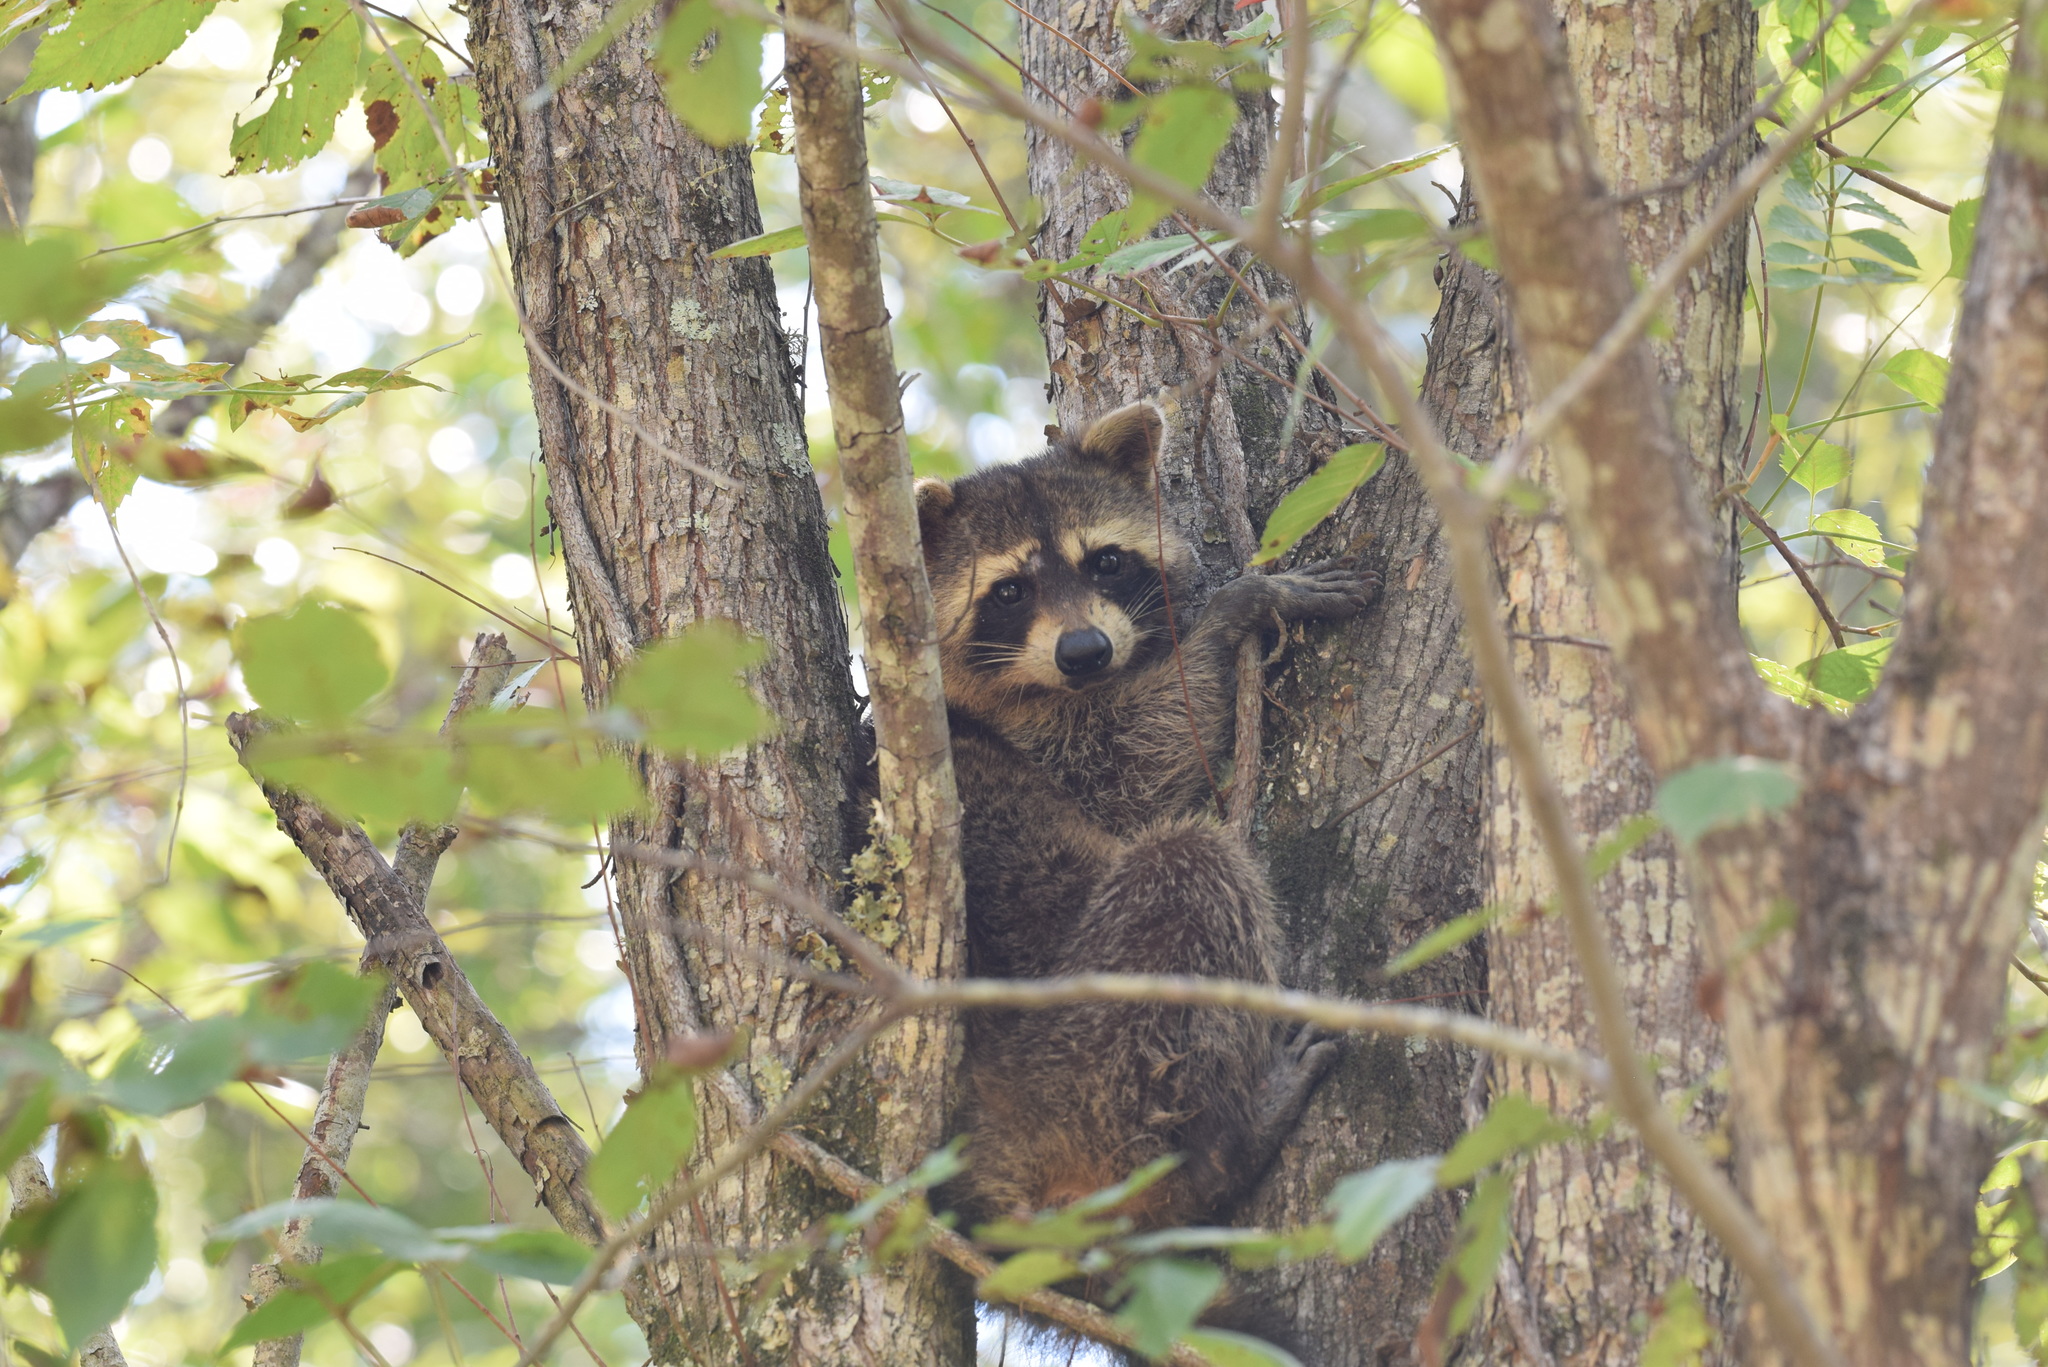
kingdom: Animalia
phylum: Chordata
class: Mammalia
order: Carnivora
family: Procyonidae
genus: Procyon
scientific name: Procyon lotor
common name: Raccoon
